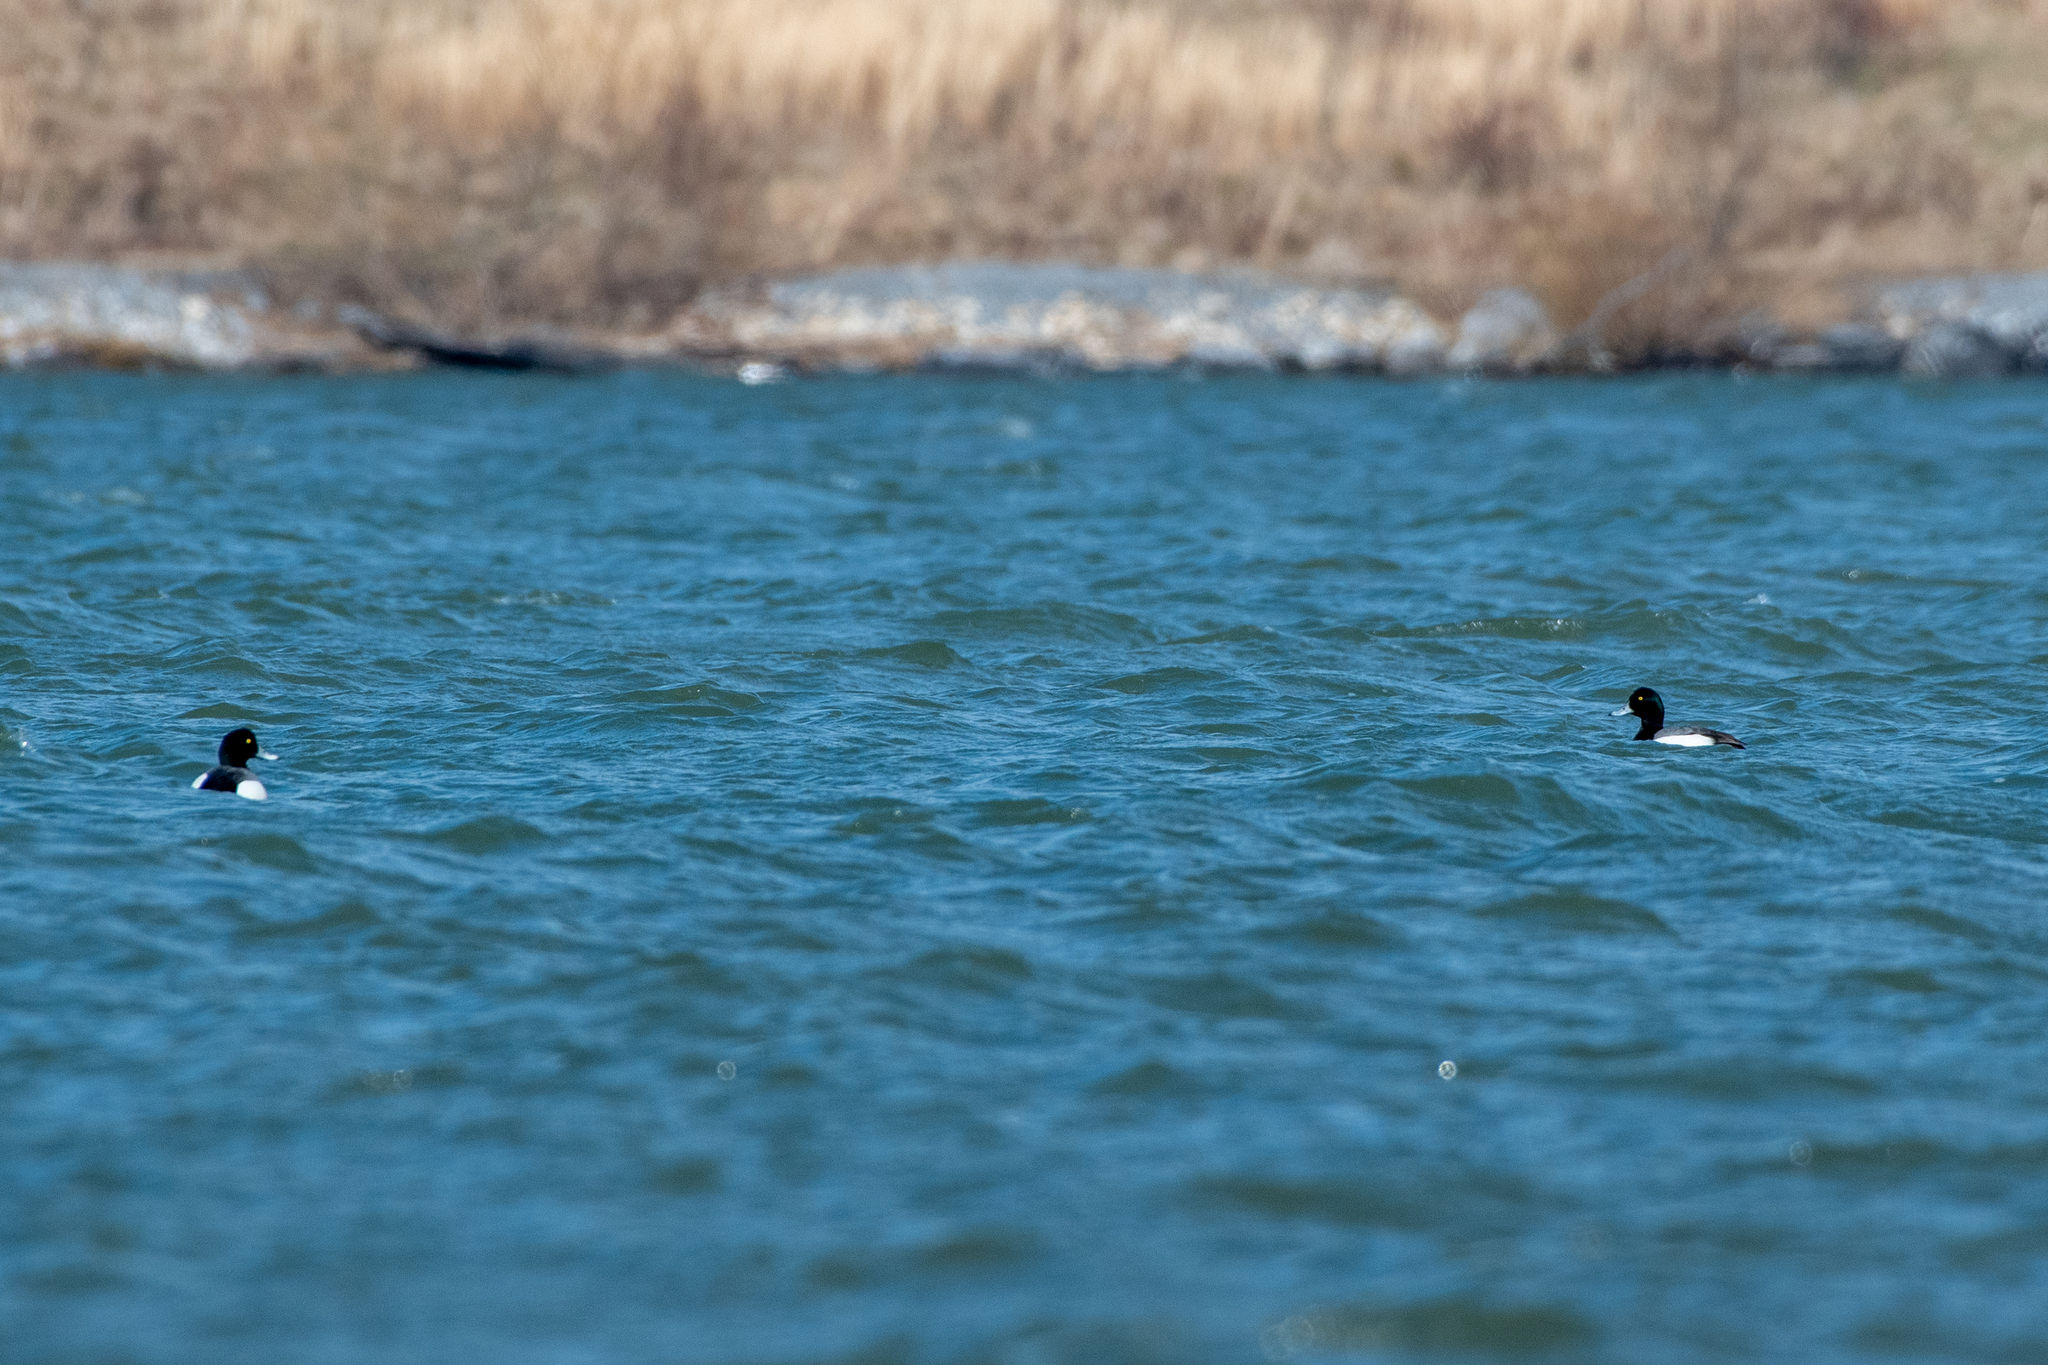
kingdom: Animalia
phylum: Chordata
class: Aves
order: Anseriformes
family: Anatidae
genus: Aythya
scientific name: Aythya marila
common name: Greater scaup
